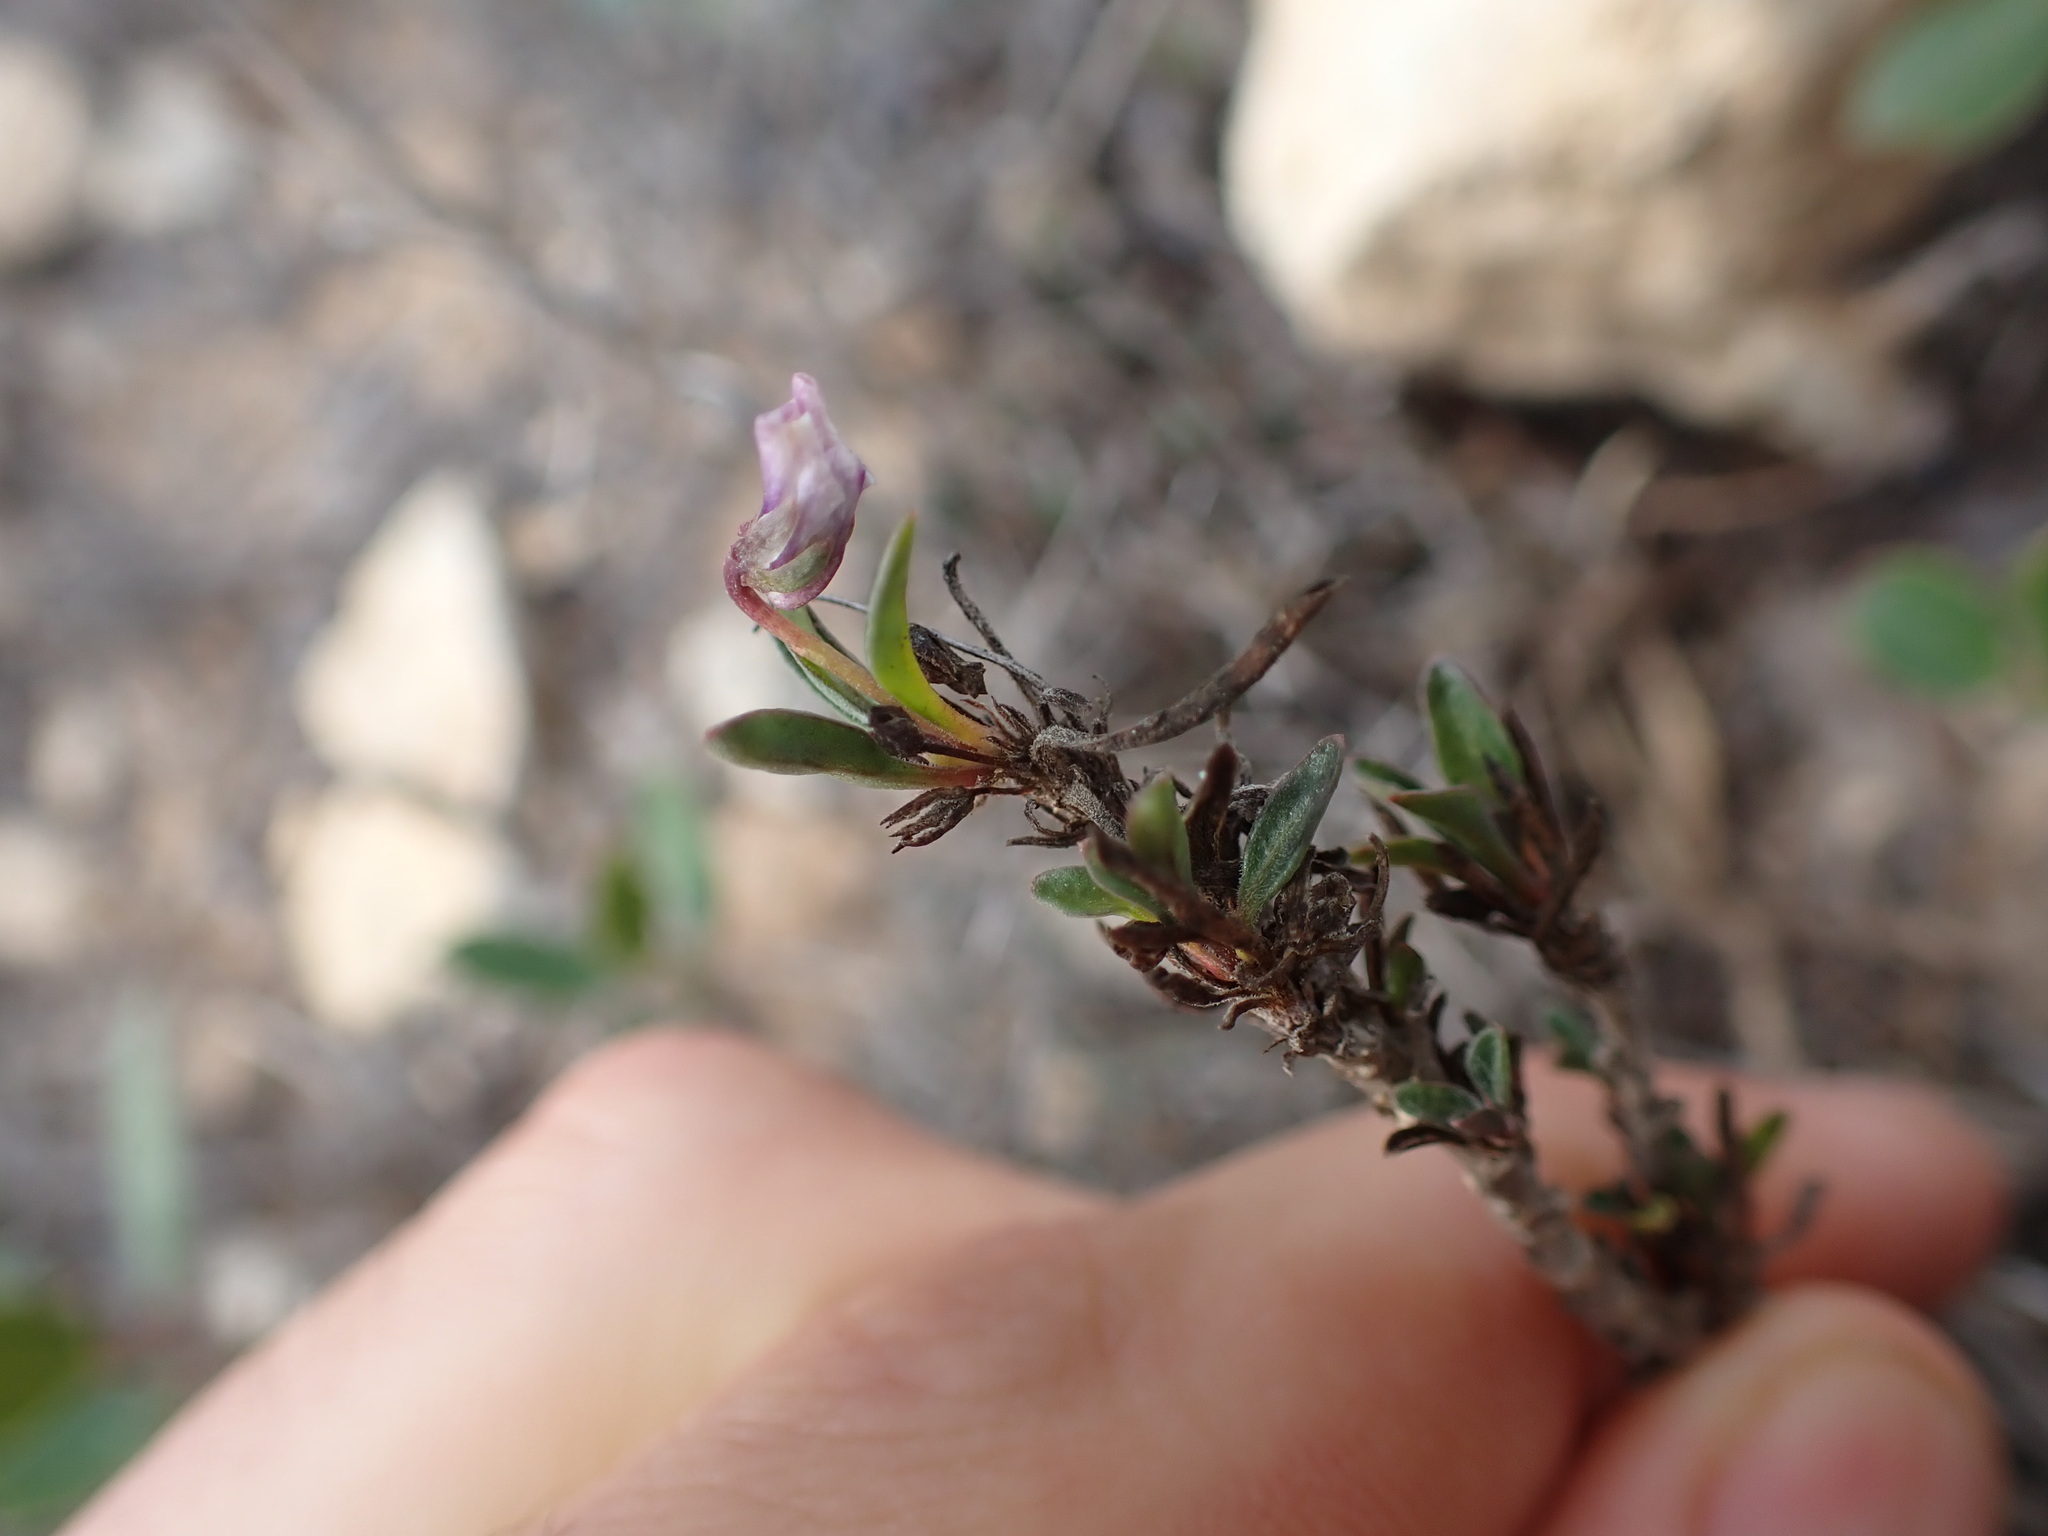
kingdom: Plantae
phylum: Tracheophyta
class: Magnoliopsida
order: Fabales
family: Polygalaceae
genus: Polygala
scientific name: Polygala rupestris
